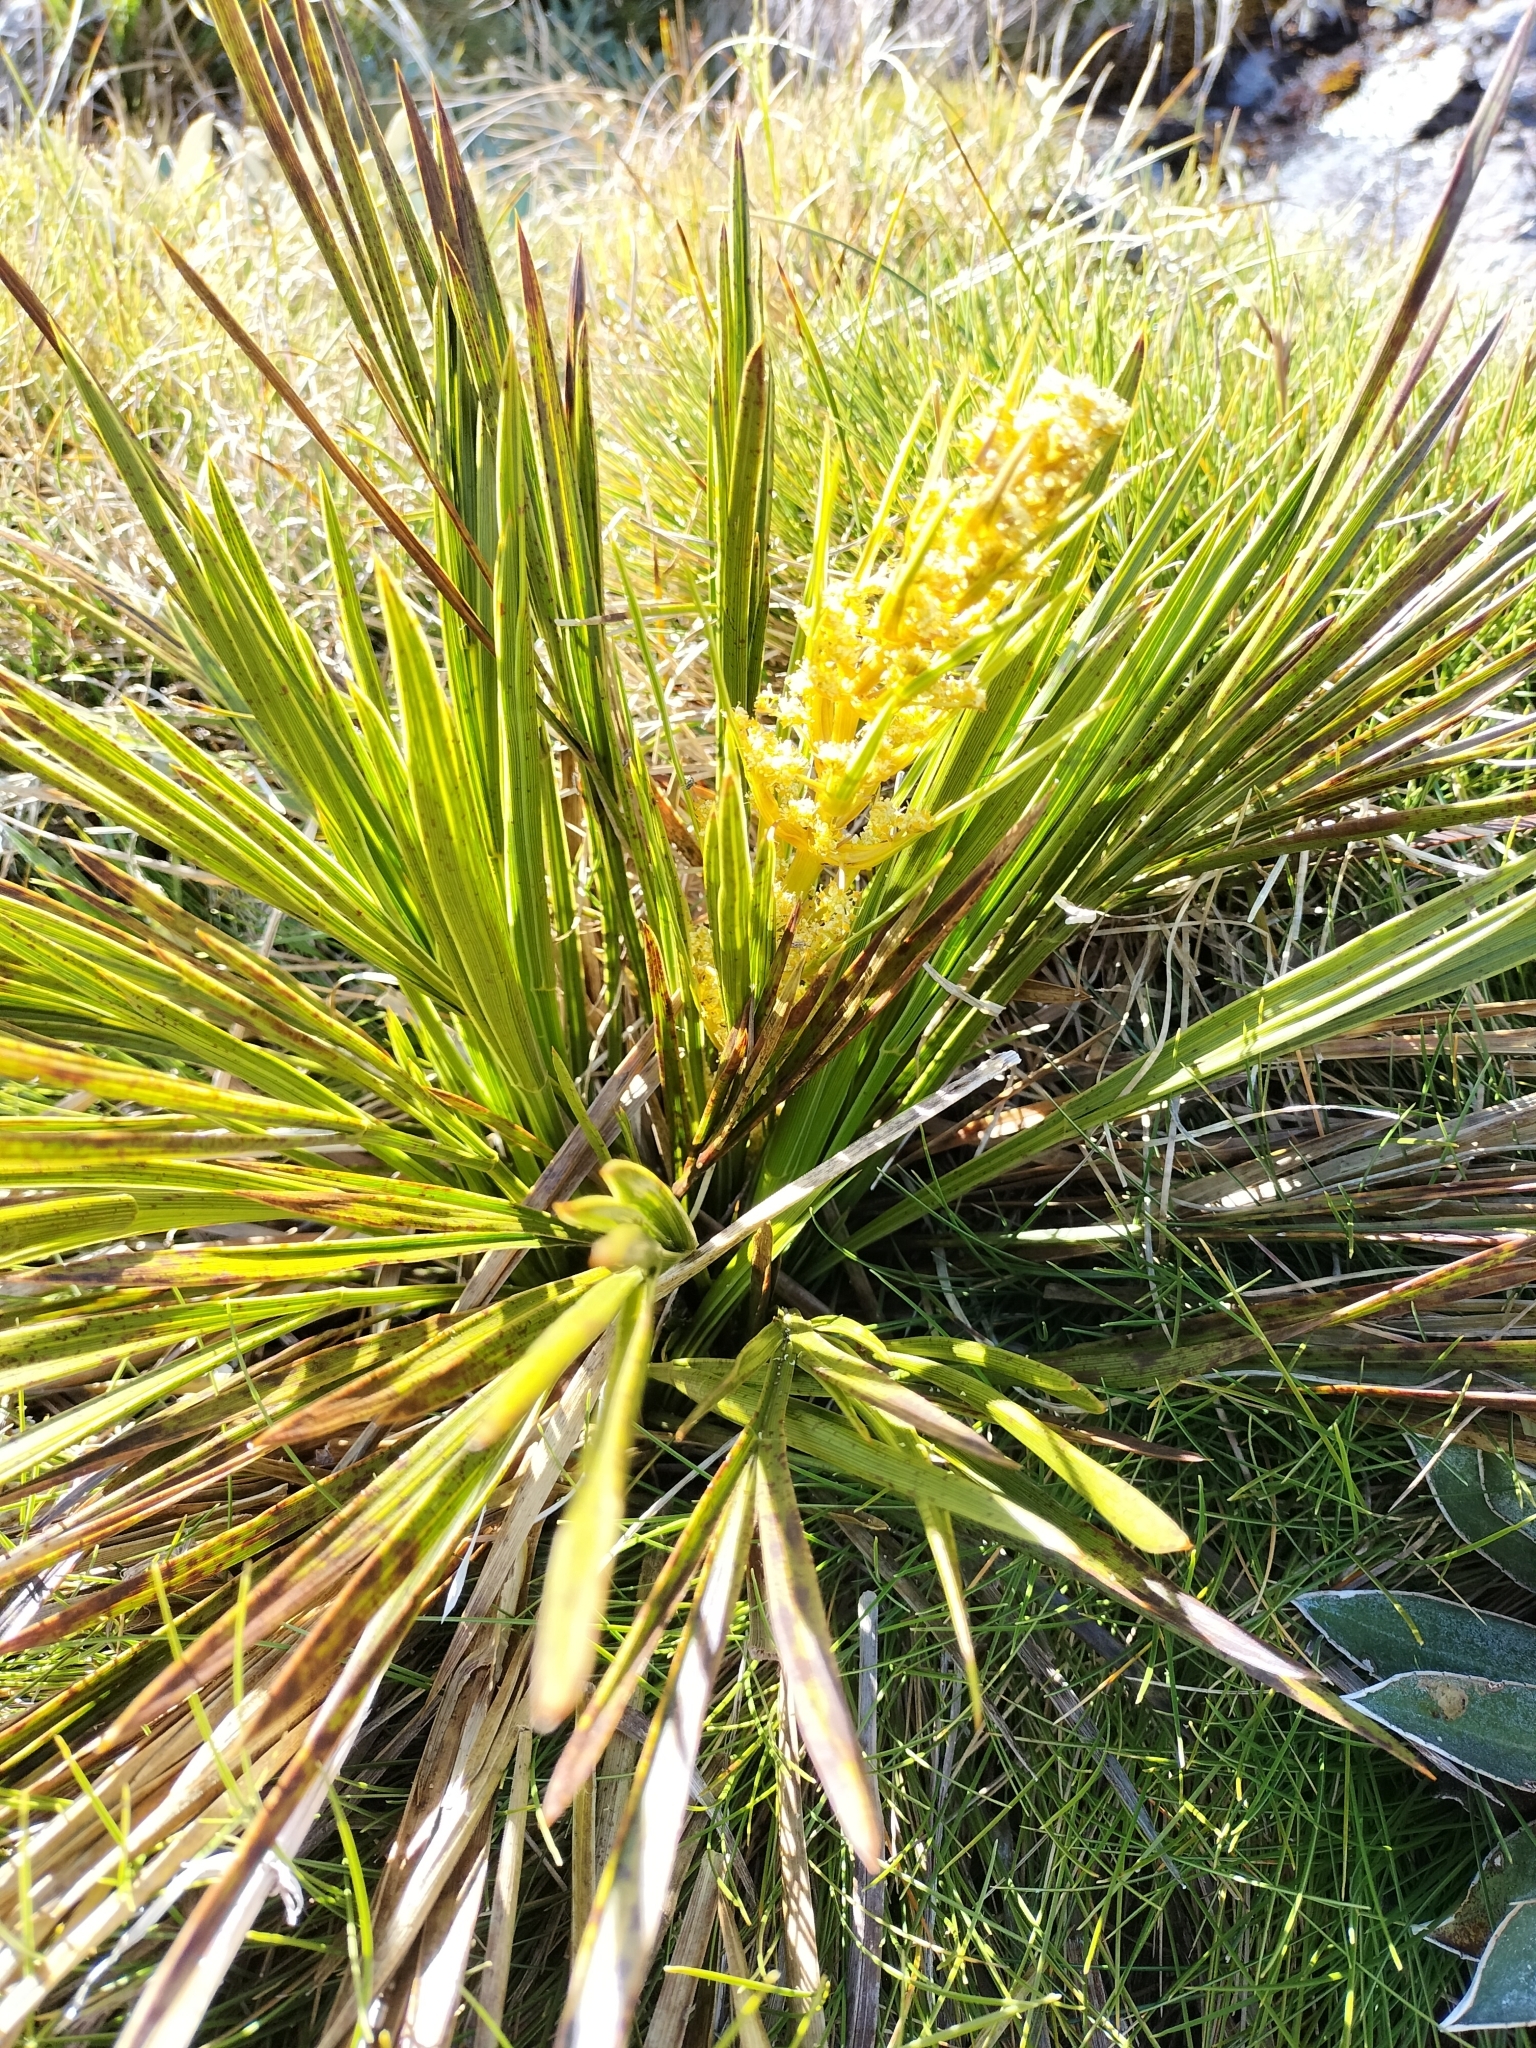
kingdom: Plantae
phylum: Tracheophyta
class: Magnoliopsida
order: Apiales
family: Apiaceae
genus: Aciphylla
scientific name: Aciphylla trifoliolata
